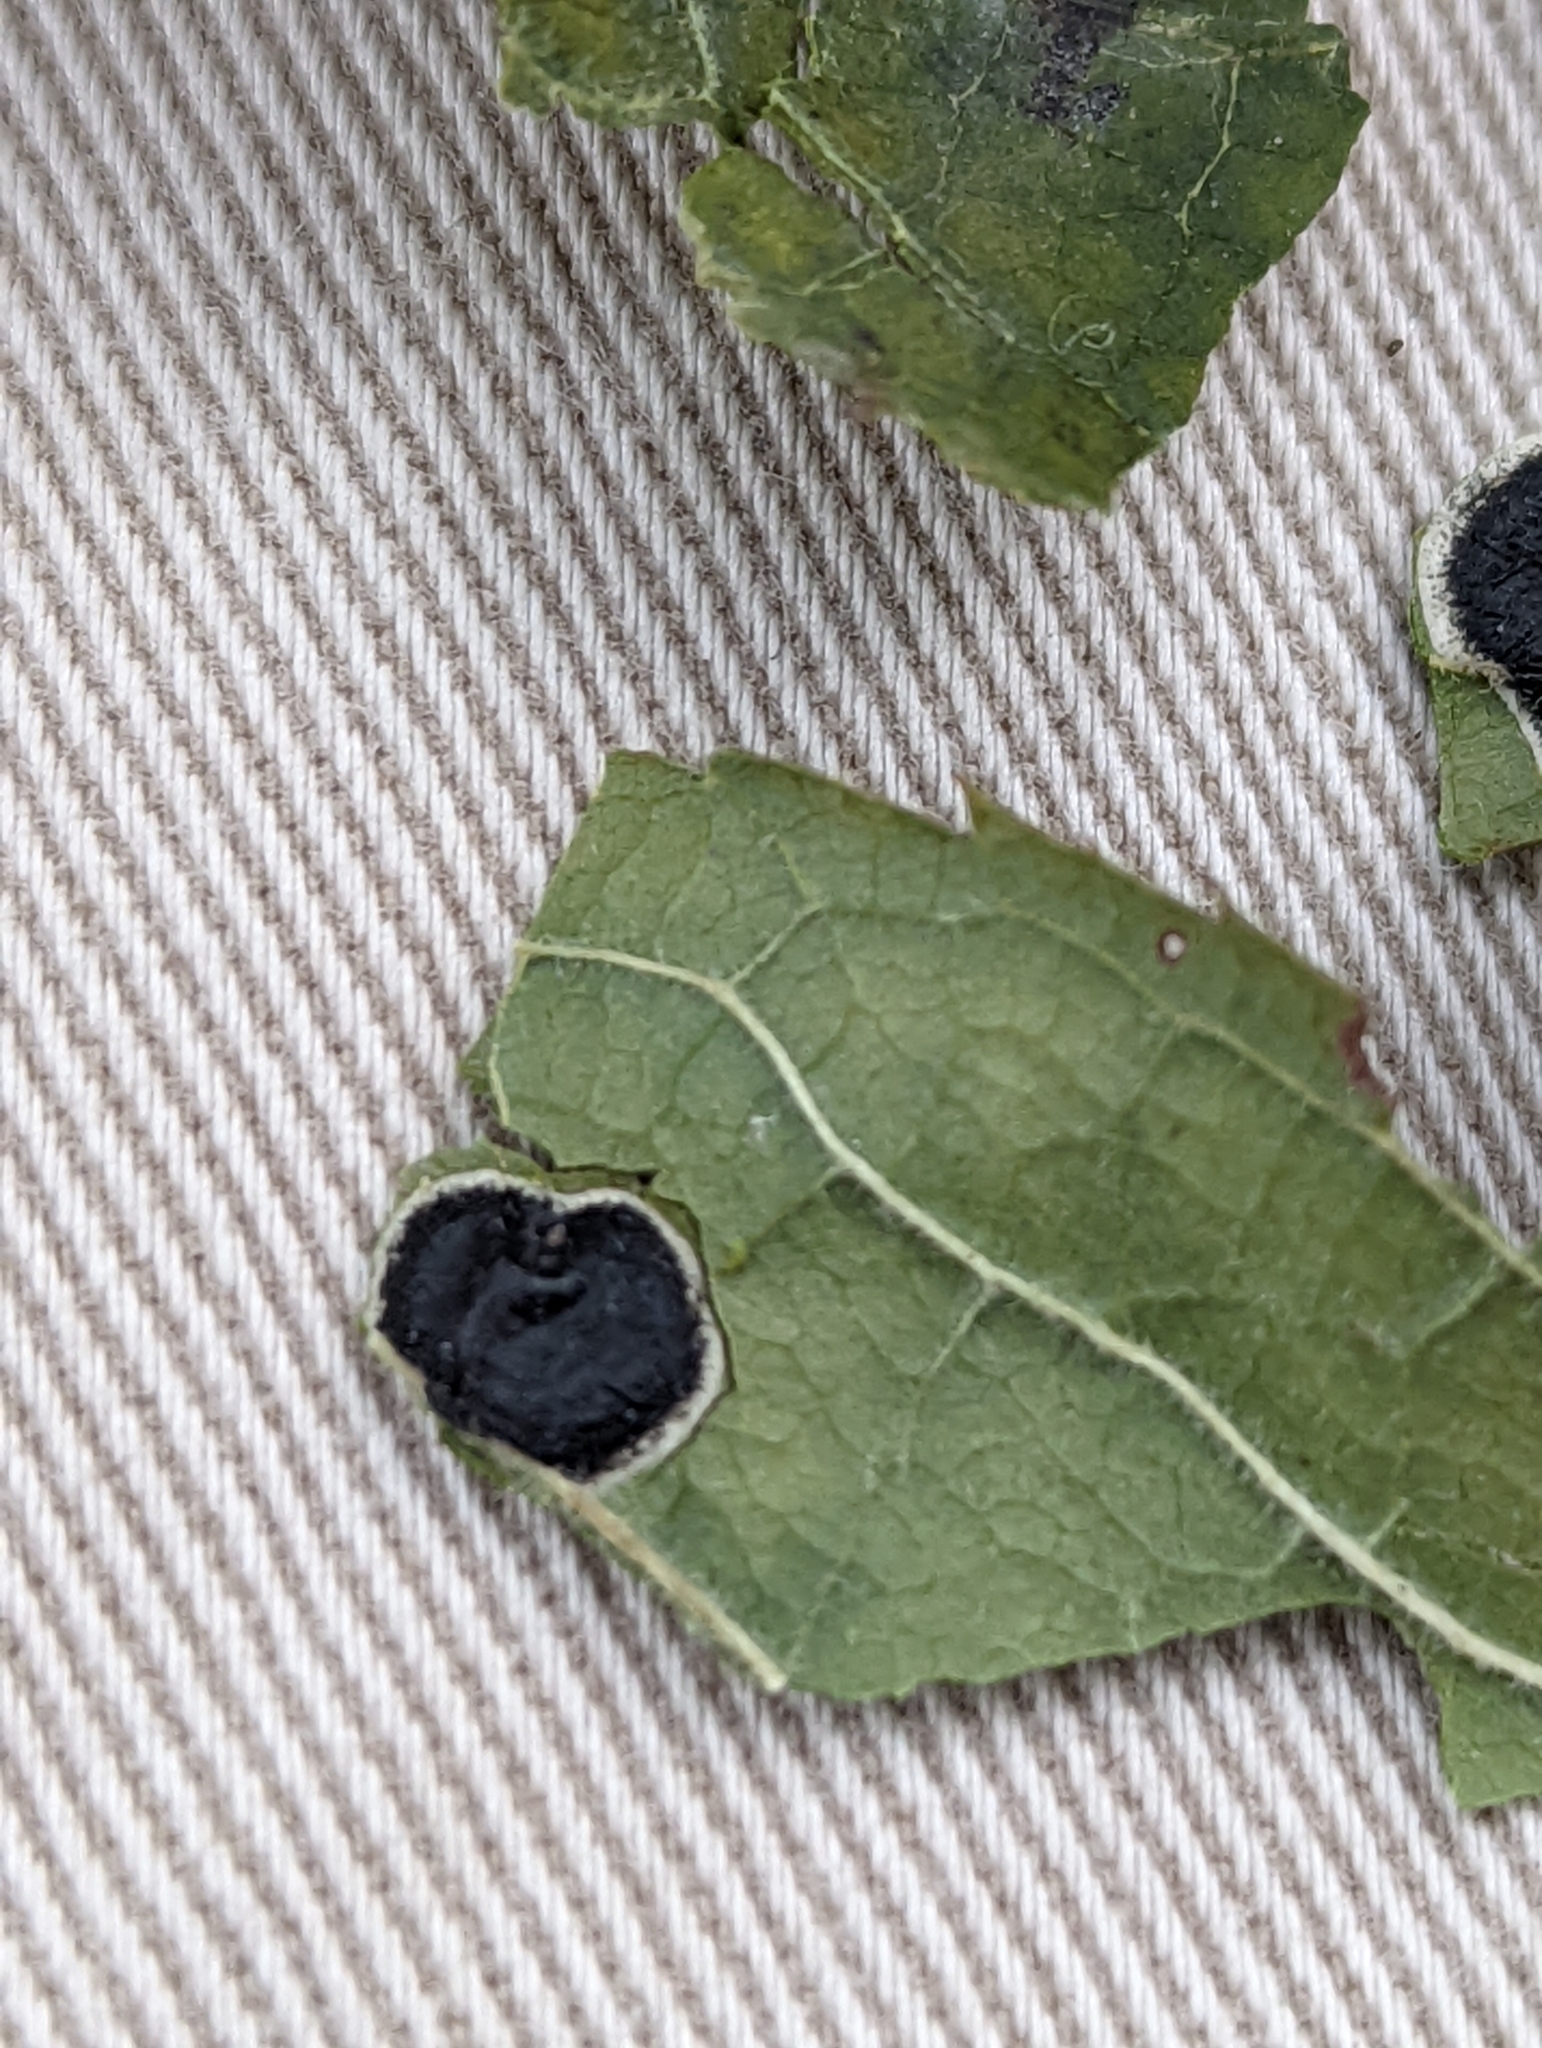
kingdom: Fungi
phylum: Ascomycota
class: Leotiomycetes
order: Rhytismatales
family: Rhytismataceae
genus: Rhytisma
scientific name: Rhytisma prini
